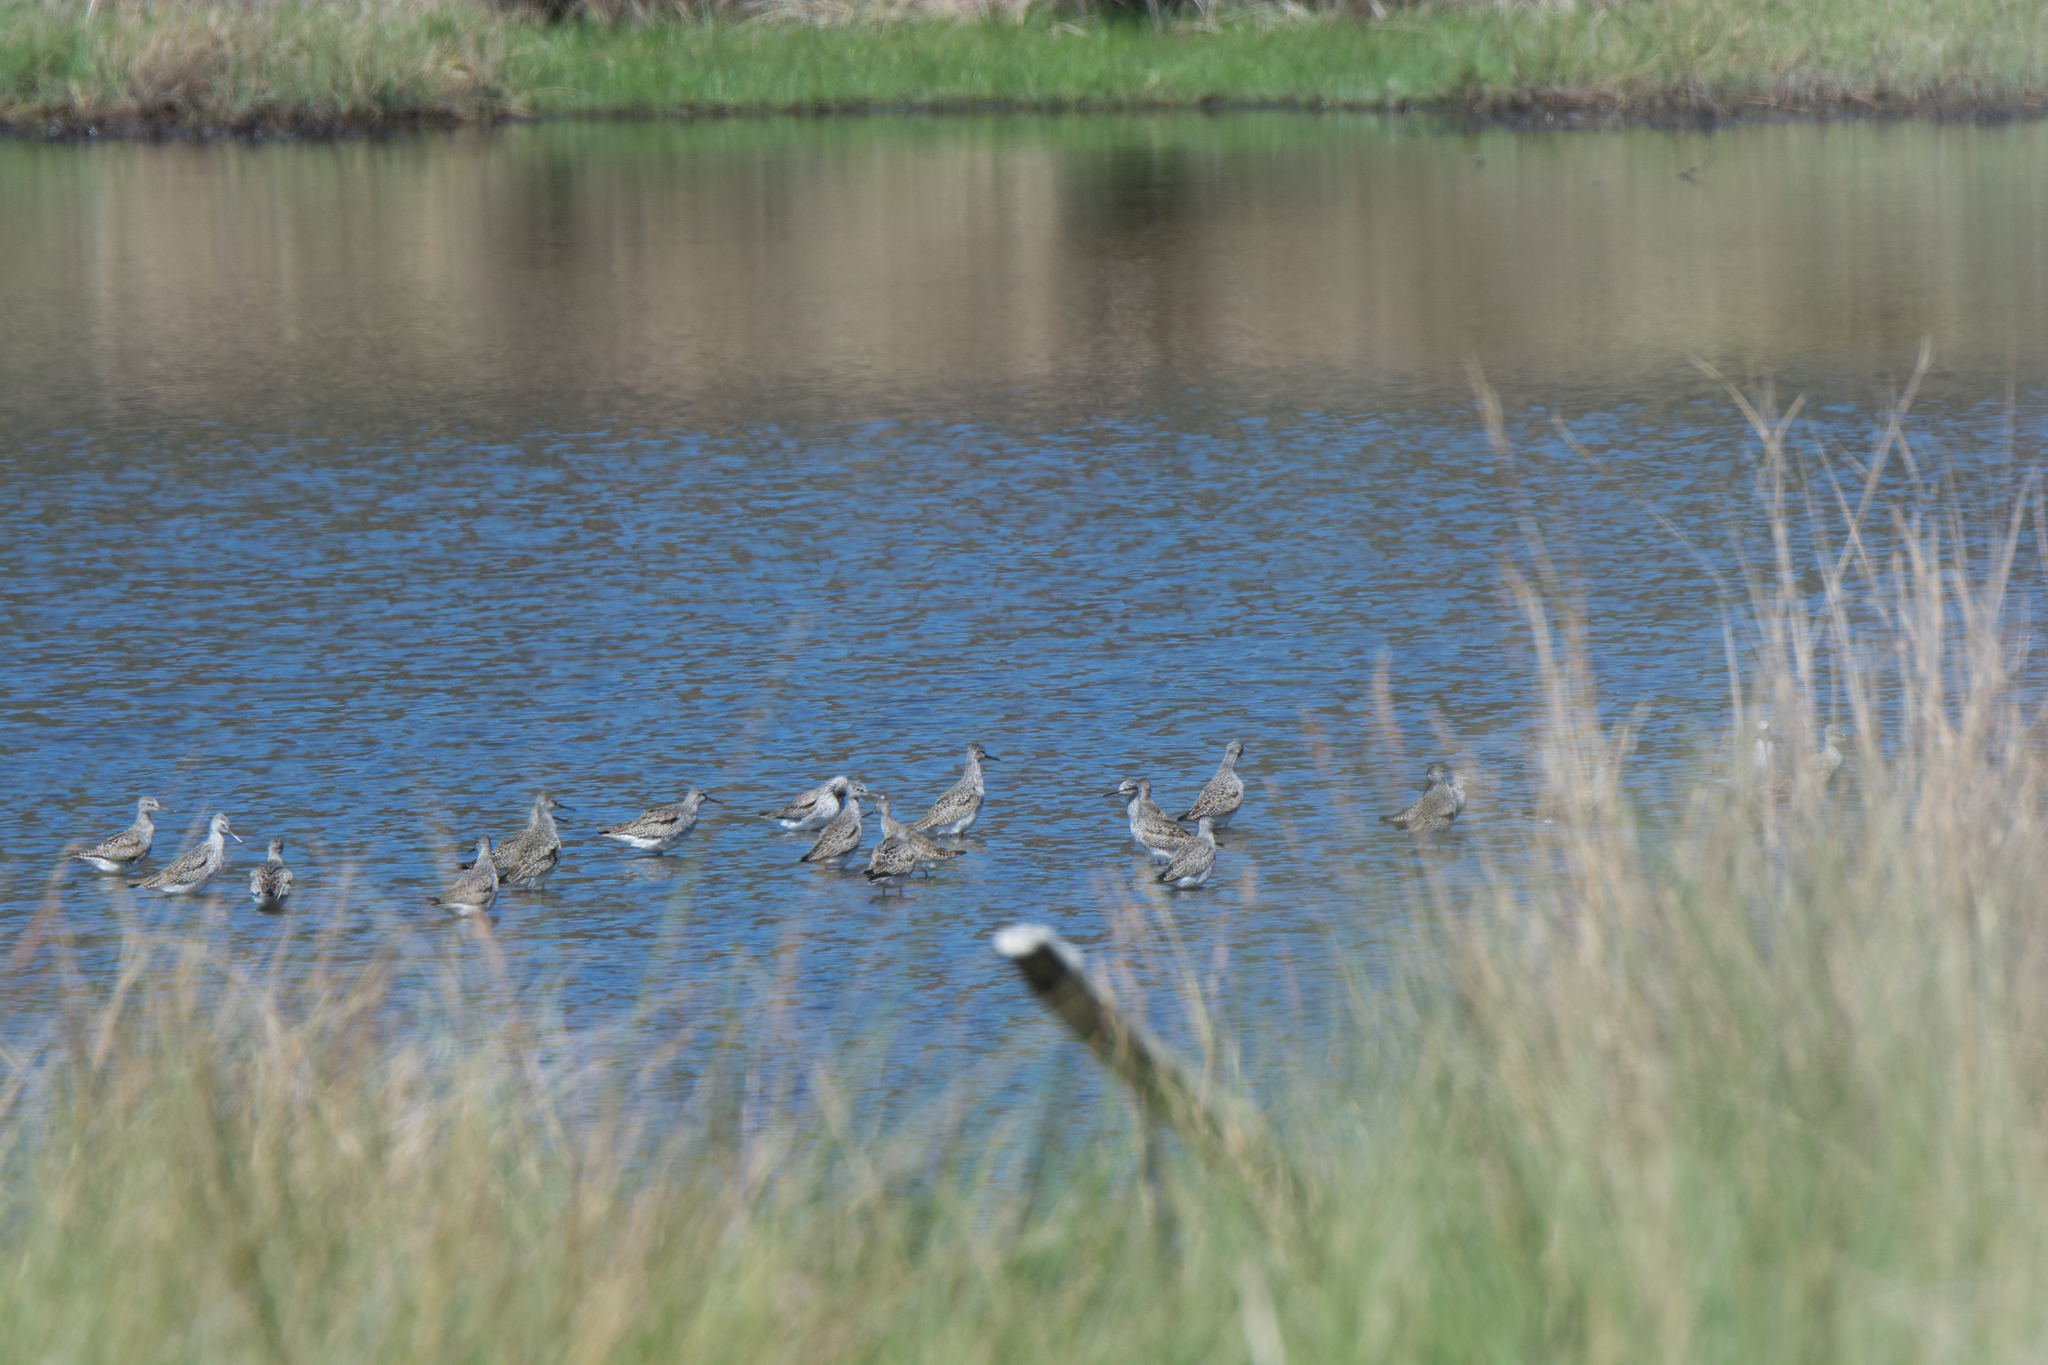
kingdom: Animalia
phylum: Chordata
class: Aves
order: Charadriiformes
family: Scolopacidae
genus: Tringa
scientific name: Tringa flavipes
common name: Lesser yellowlegs
